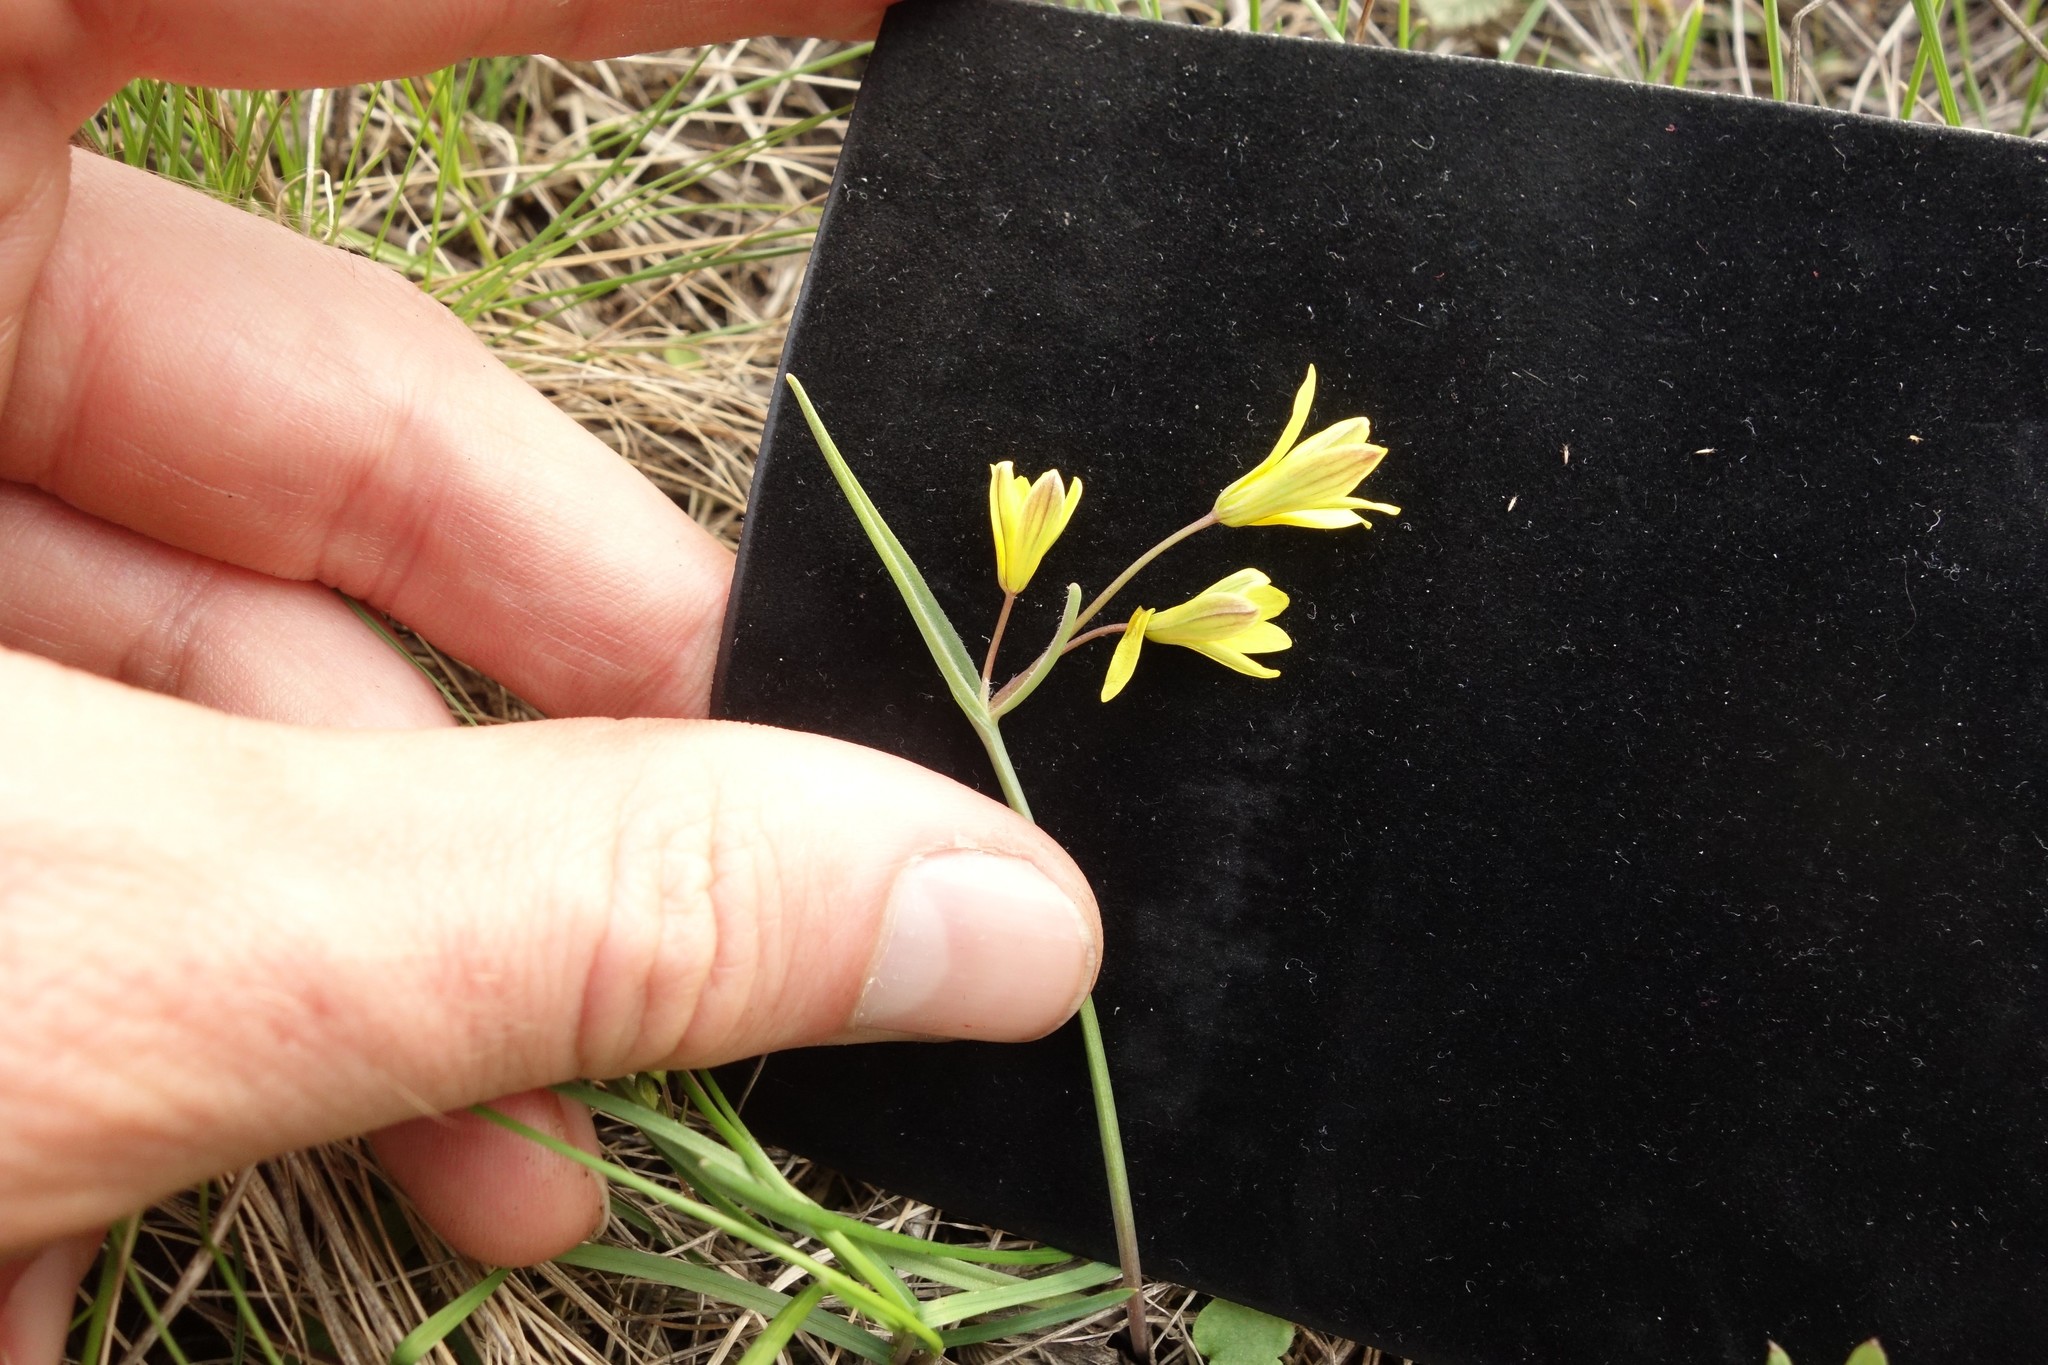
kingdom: Plantae
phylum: Tracheophyta
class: Liliopsida
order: Liliales
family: Liliaceae
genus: Gagea
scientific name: Gagea fragifera
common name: Lily
